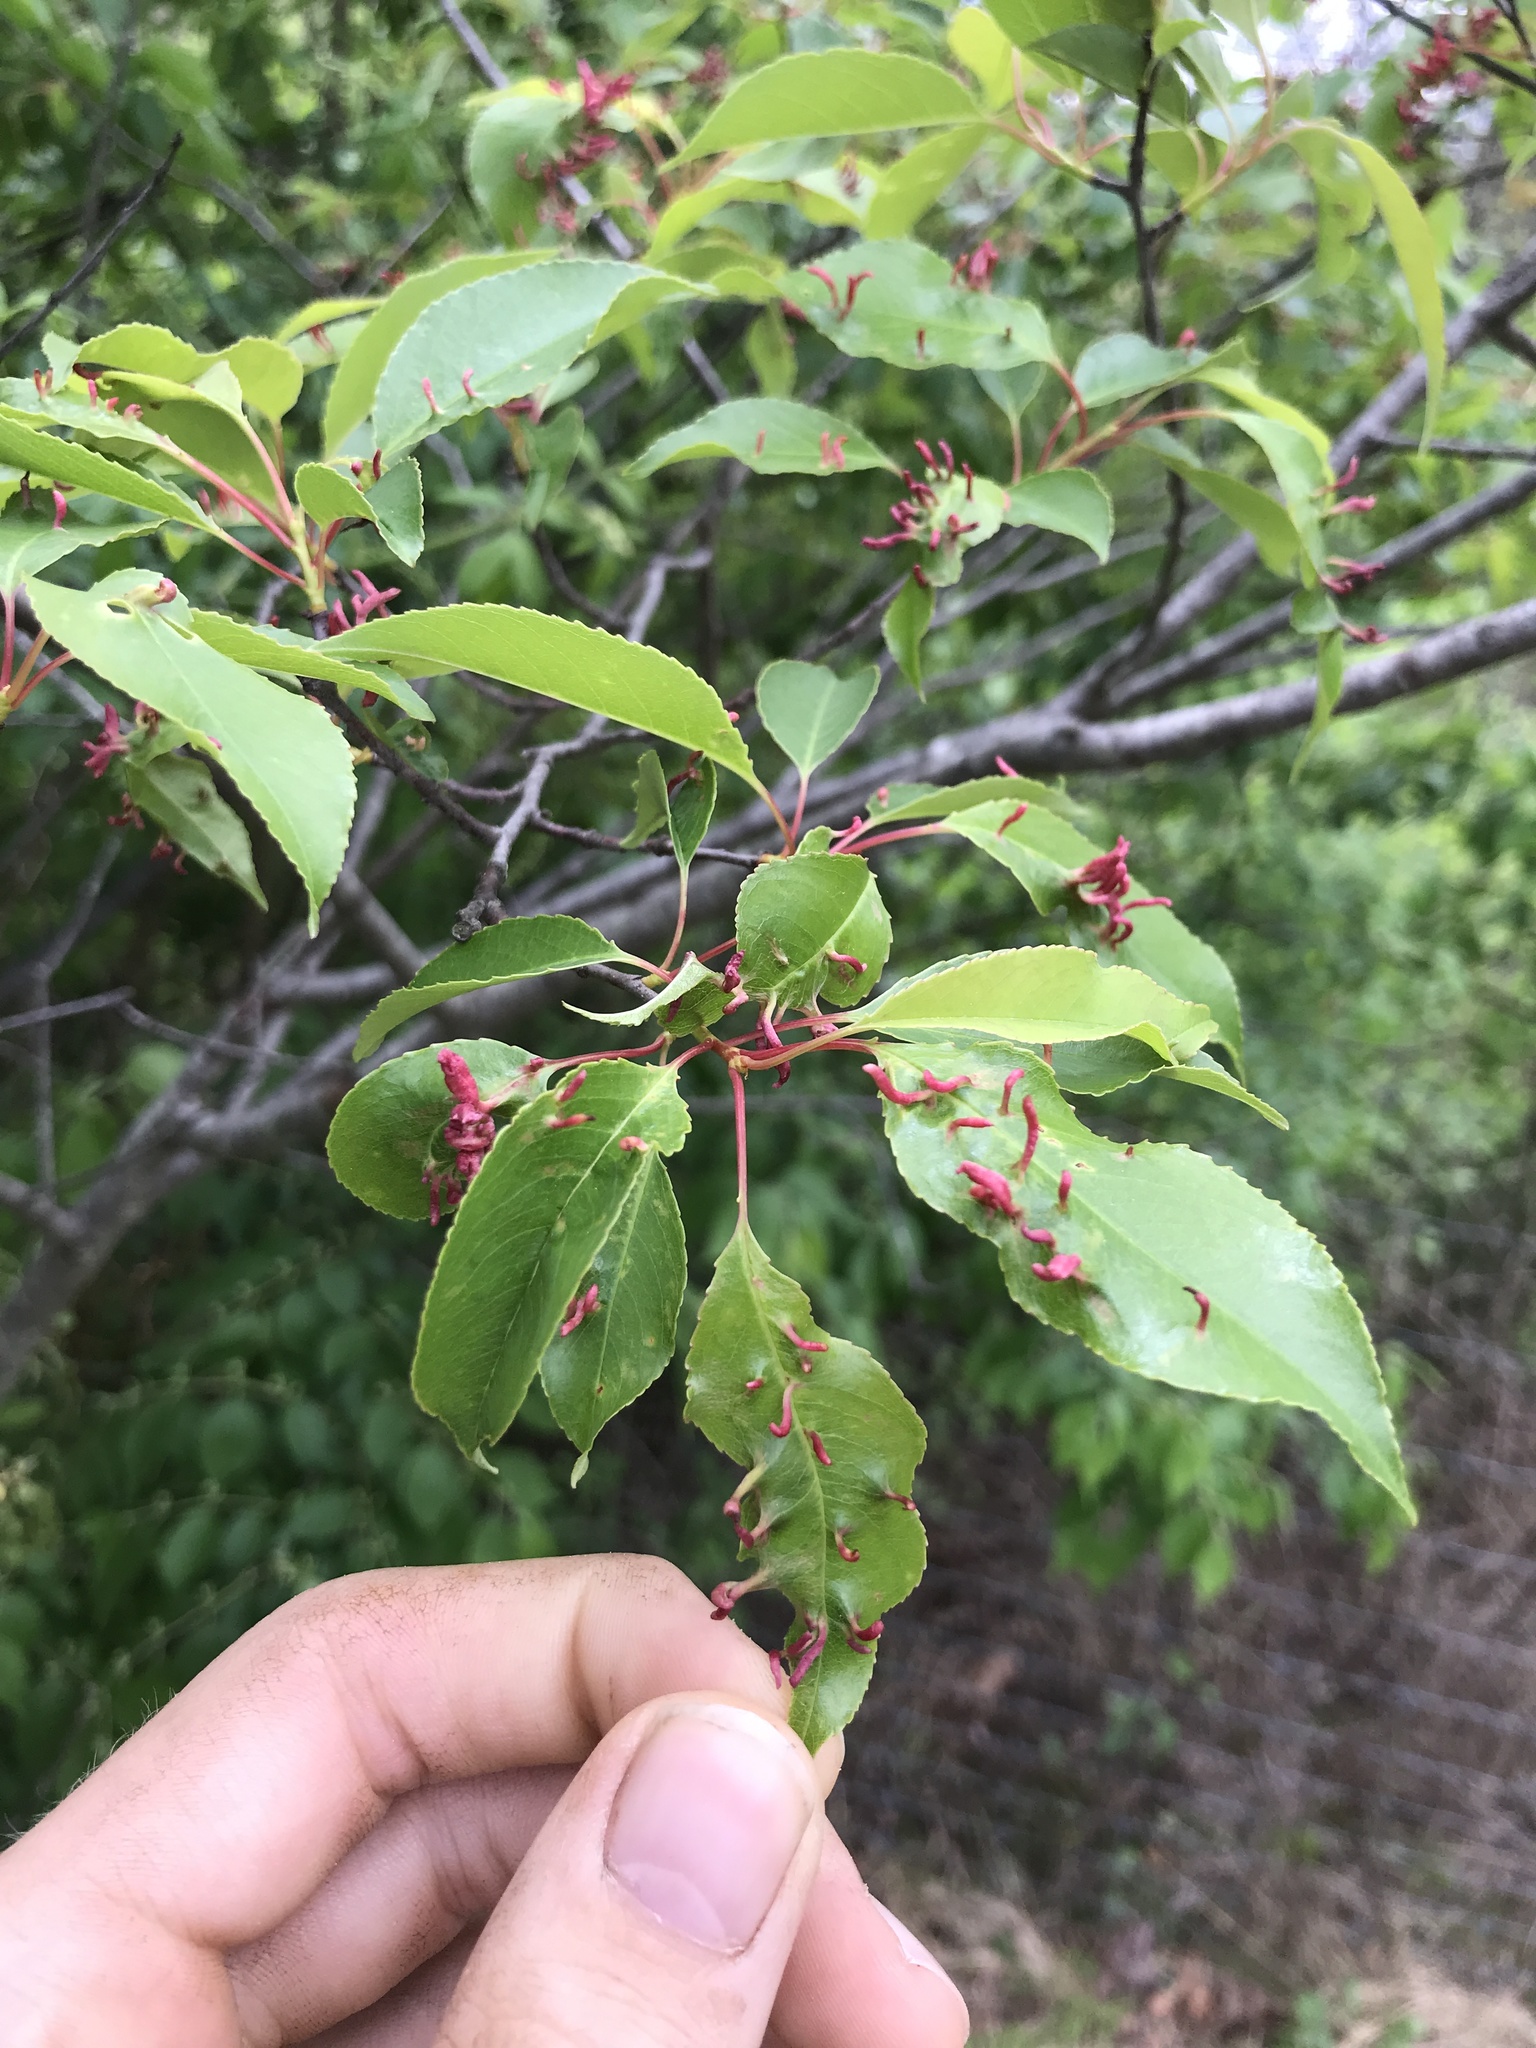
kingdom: Animalia
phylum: Arthropoda
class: Arachnida
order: Trombidiformes
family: Eriophyidae
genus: Eriophyes
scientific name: Eriophyes
